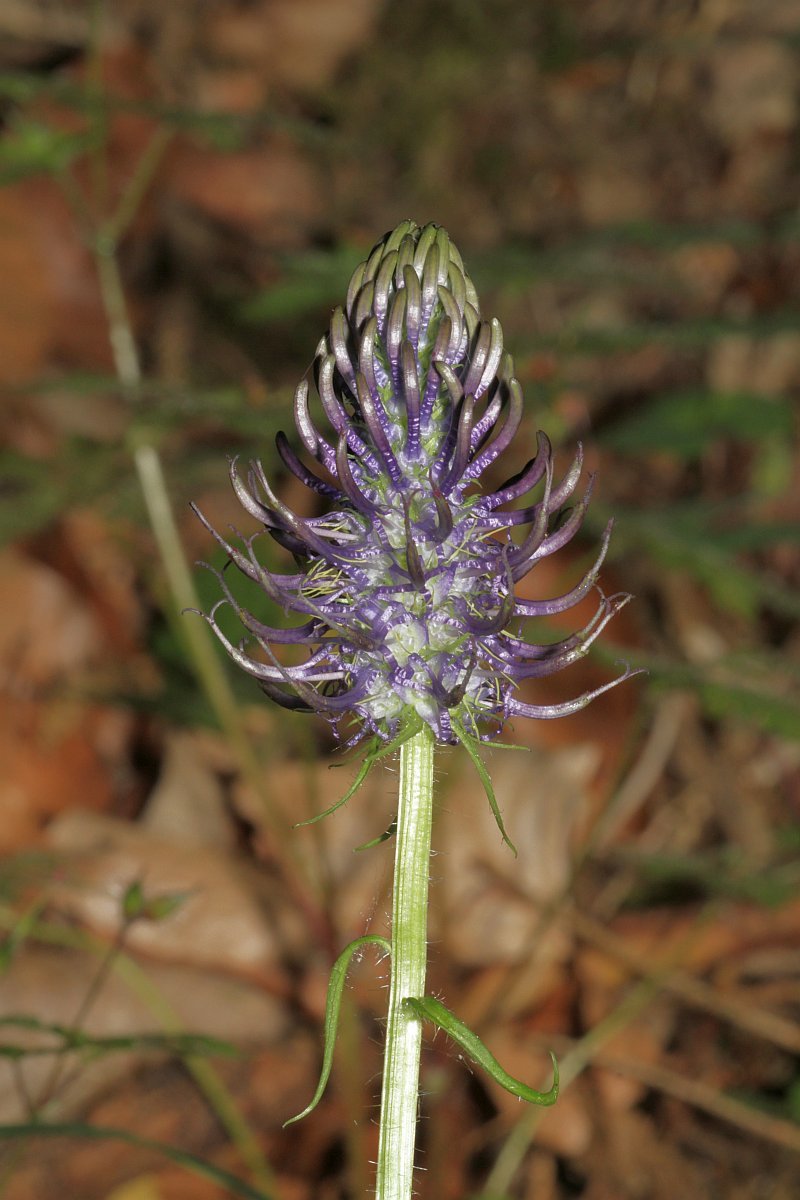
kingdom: Plantae
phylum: Tracheophyta
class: Magnoliopsida
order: Asterales
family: Campanulaceae
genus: Phyteuma
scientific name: Phyteuma nigrum
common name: Black rampion
